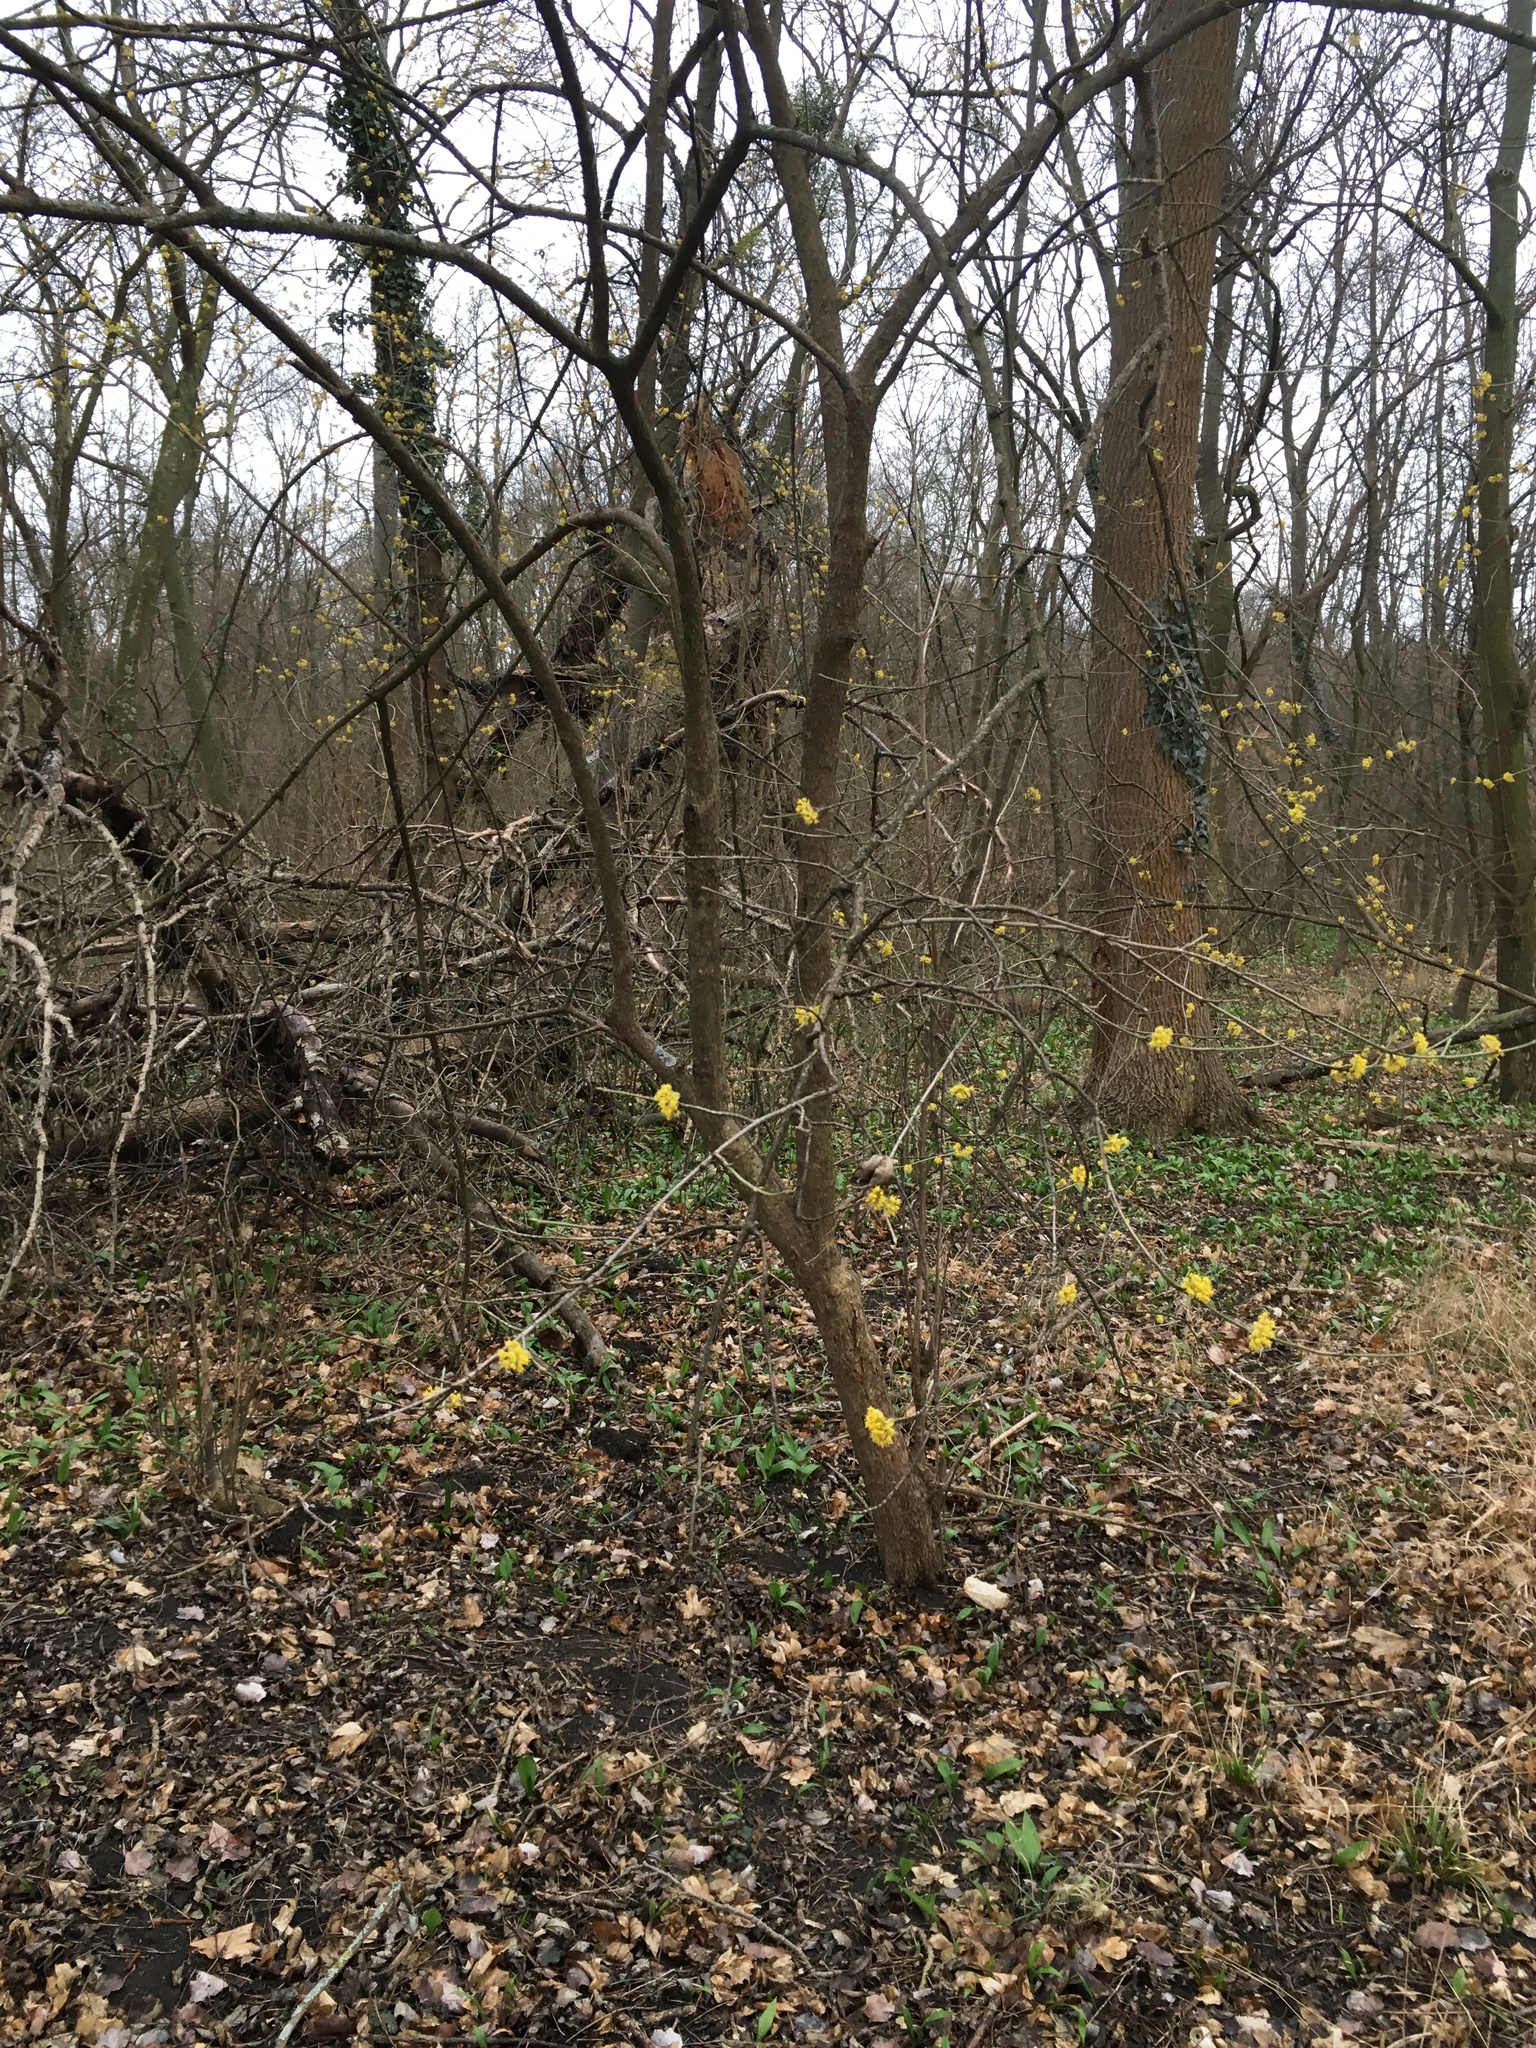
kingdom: Plantae
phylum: Tracheophyta
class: Magnoliopsida
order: Cornales
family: Cornaceae
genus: Cornus
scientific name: Cornus mas
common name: Cornelian-cherry
